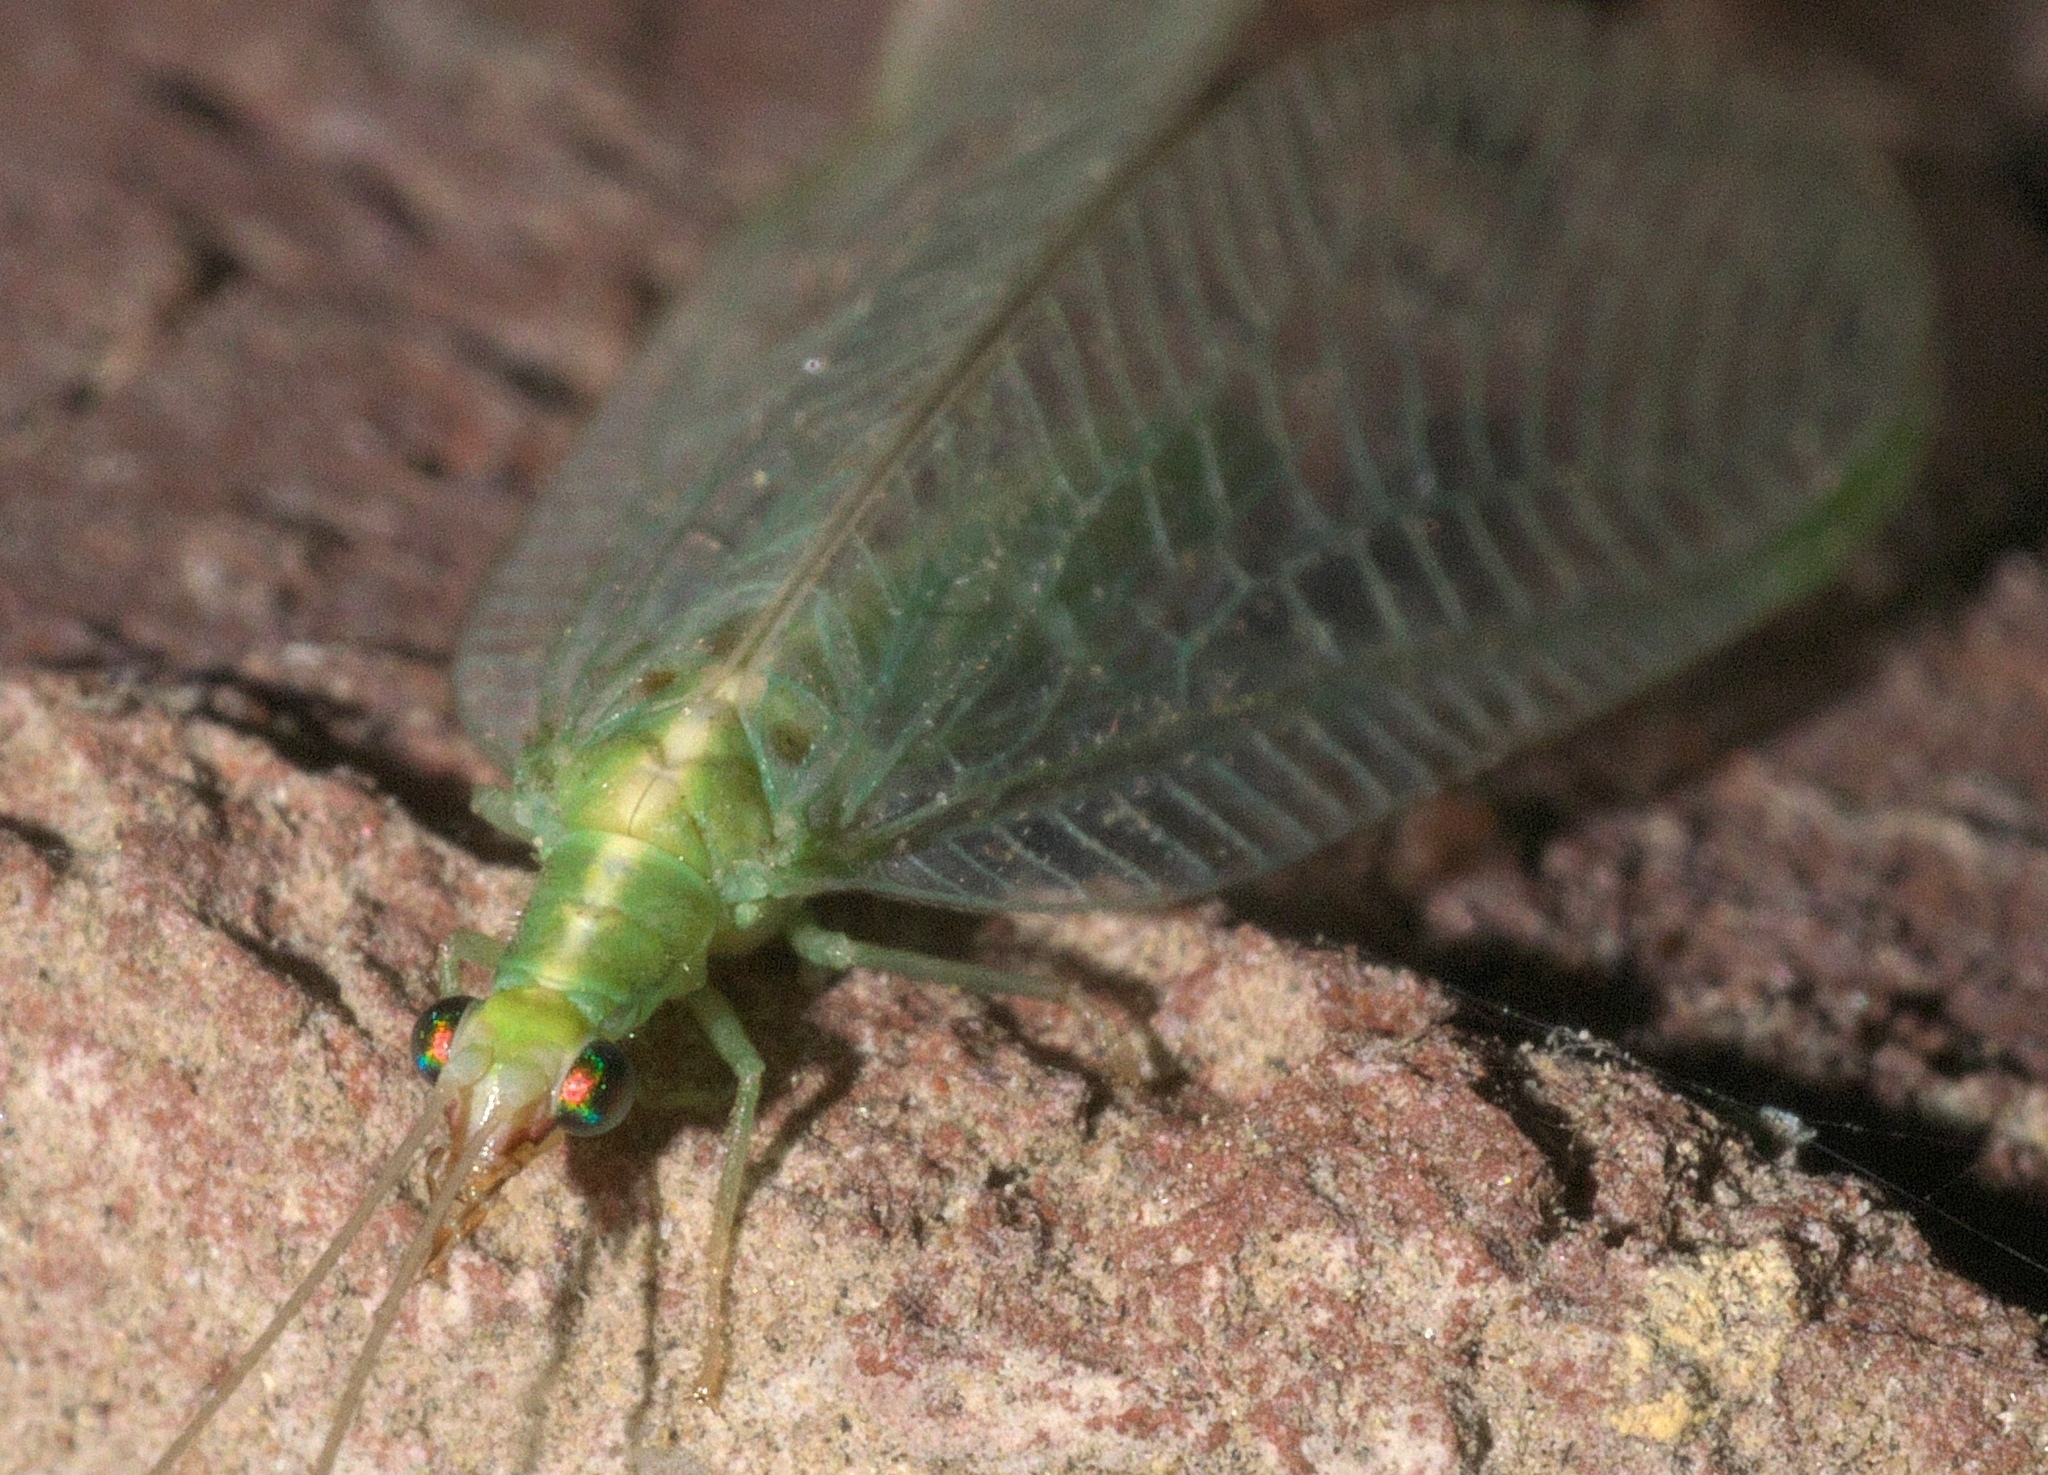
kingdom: Animalia
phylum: Arthropoda
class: Insecta
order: Neuroptera
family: Chrysopidae
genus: Chrysoperla
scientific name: Chrysoperla
